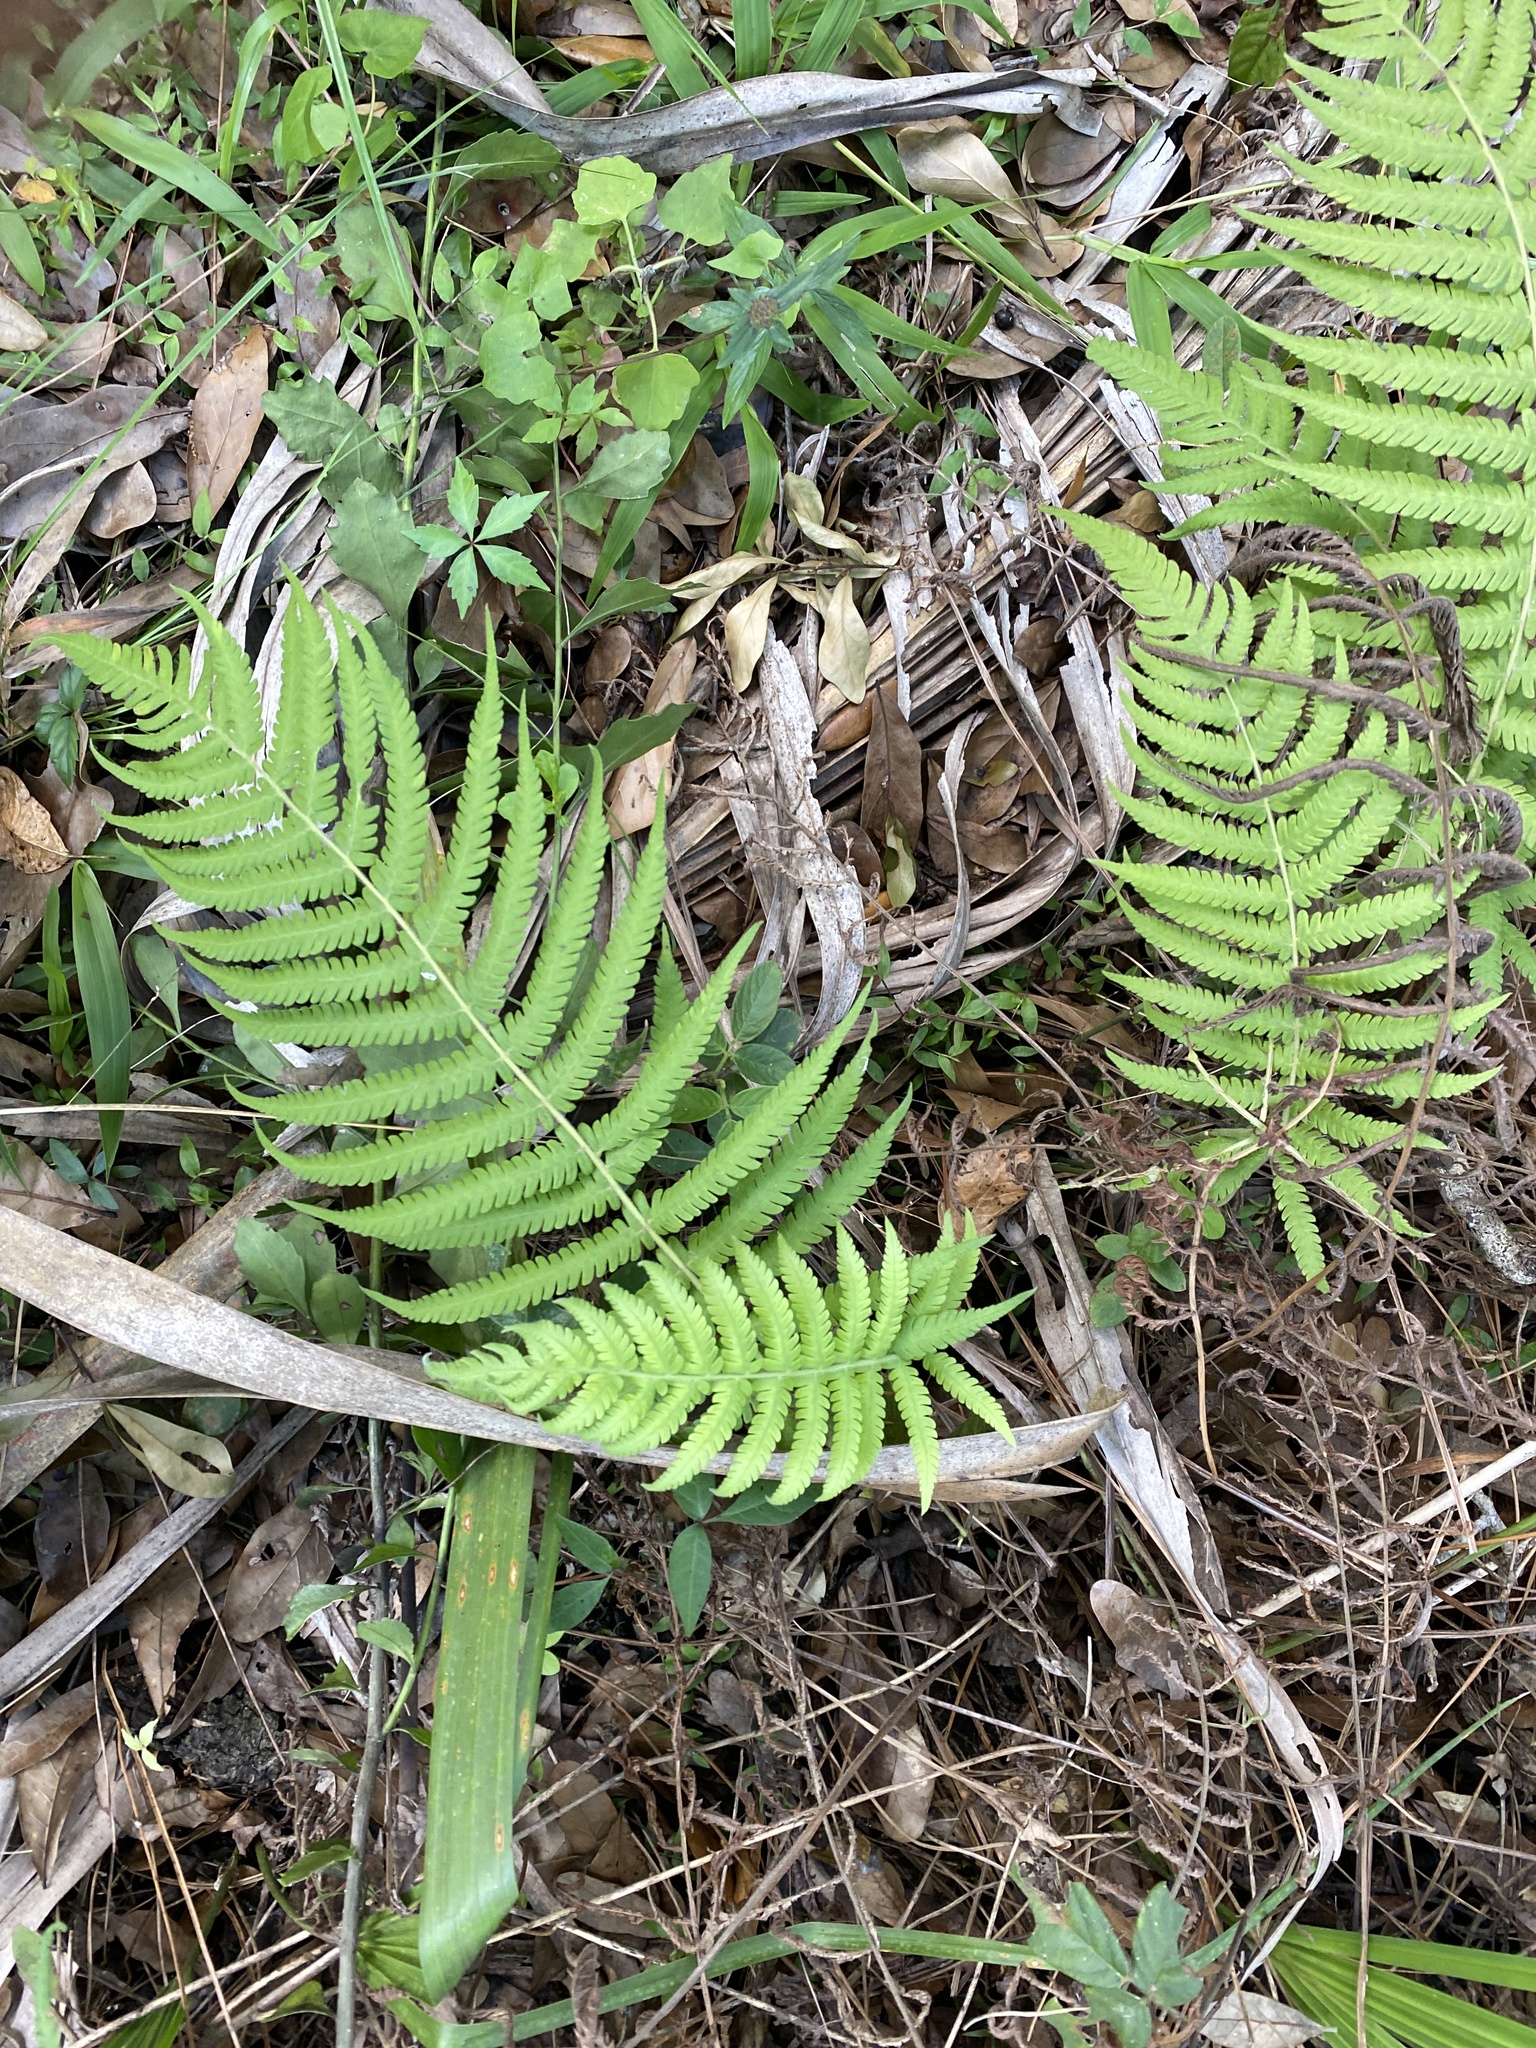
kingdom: Plantae
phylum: Tracheophyta
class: Polypodiopsida
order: Polypodiales
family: Thelypteridaceae
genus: Pelazoneuron
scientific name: Pelazoneuron kunthii
